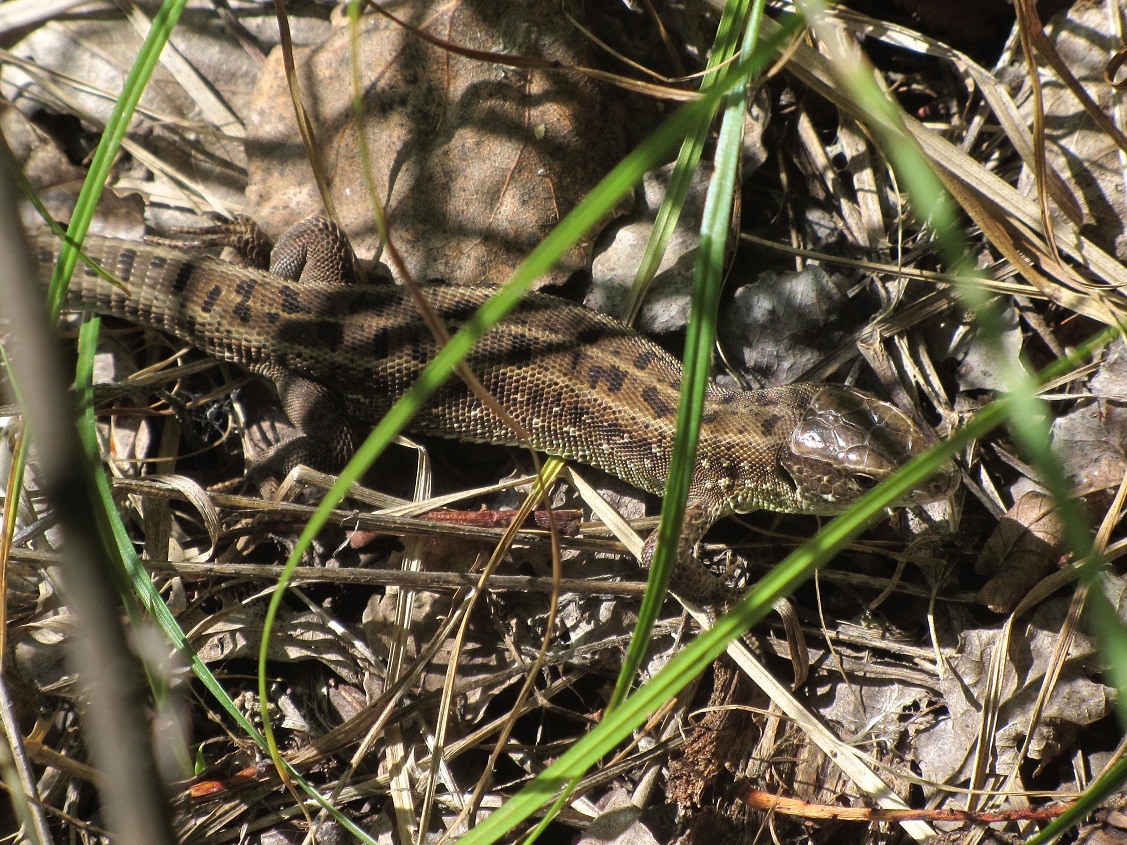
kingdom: Animalia
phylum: Chordata
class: Squamata
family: Lacertidae
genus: Lacerta
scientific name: Lacerta agilis
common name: Sand lizard
